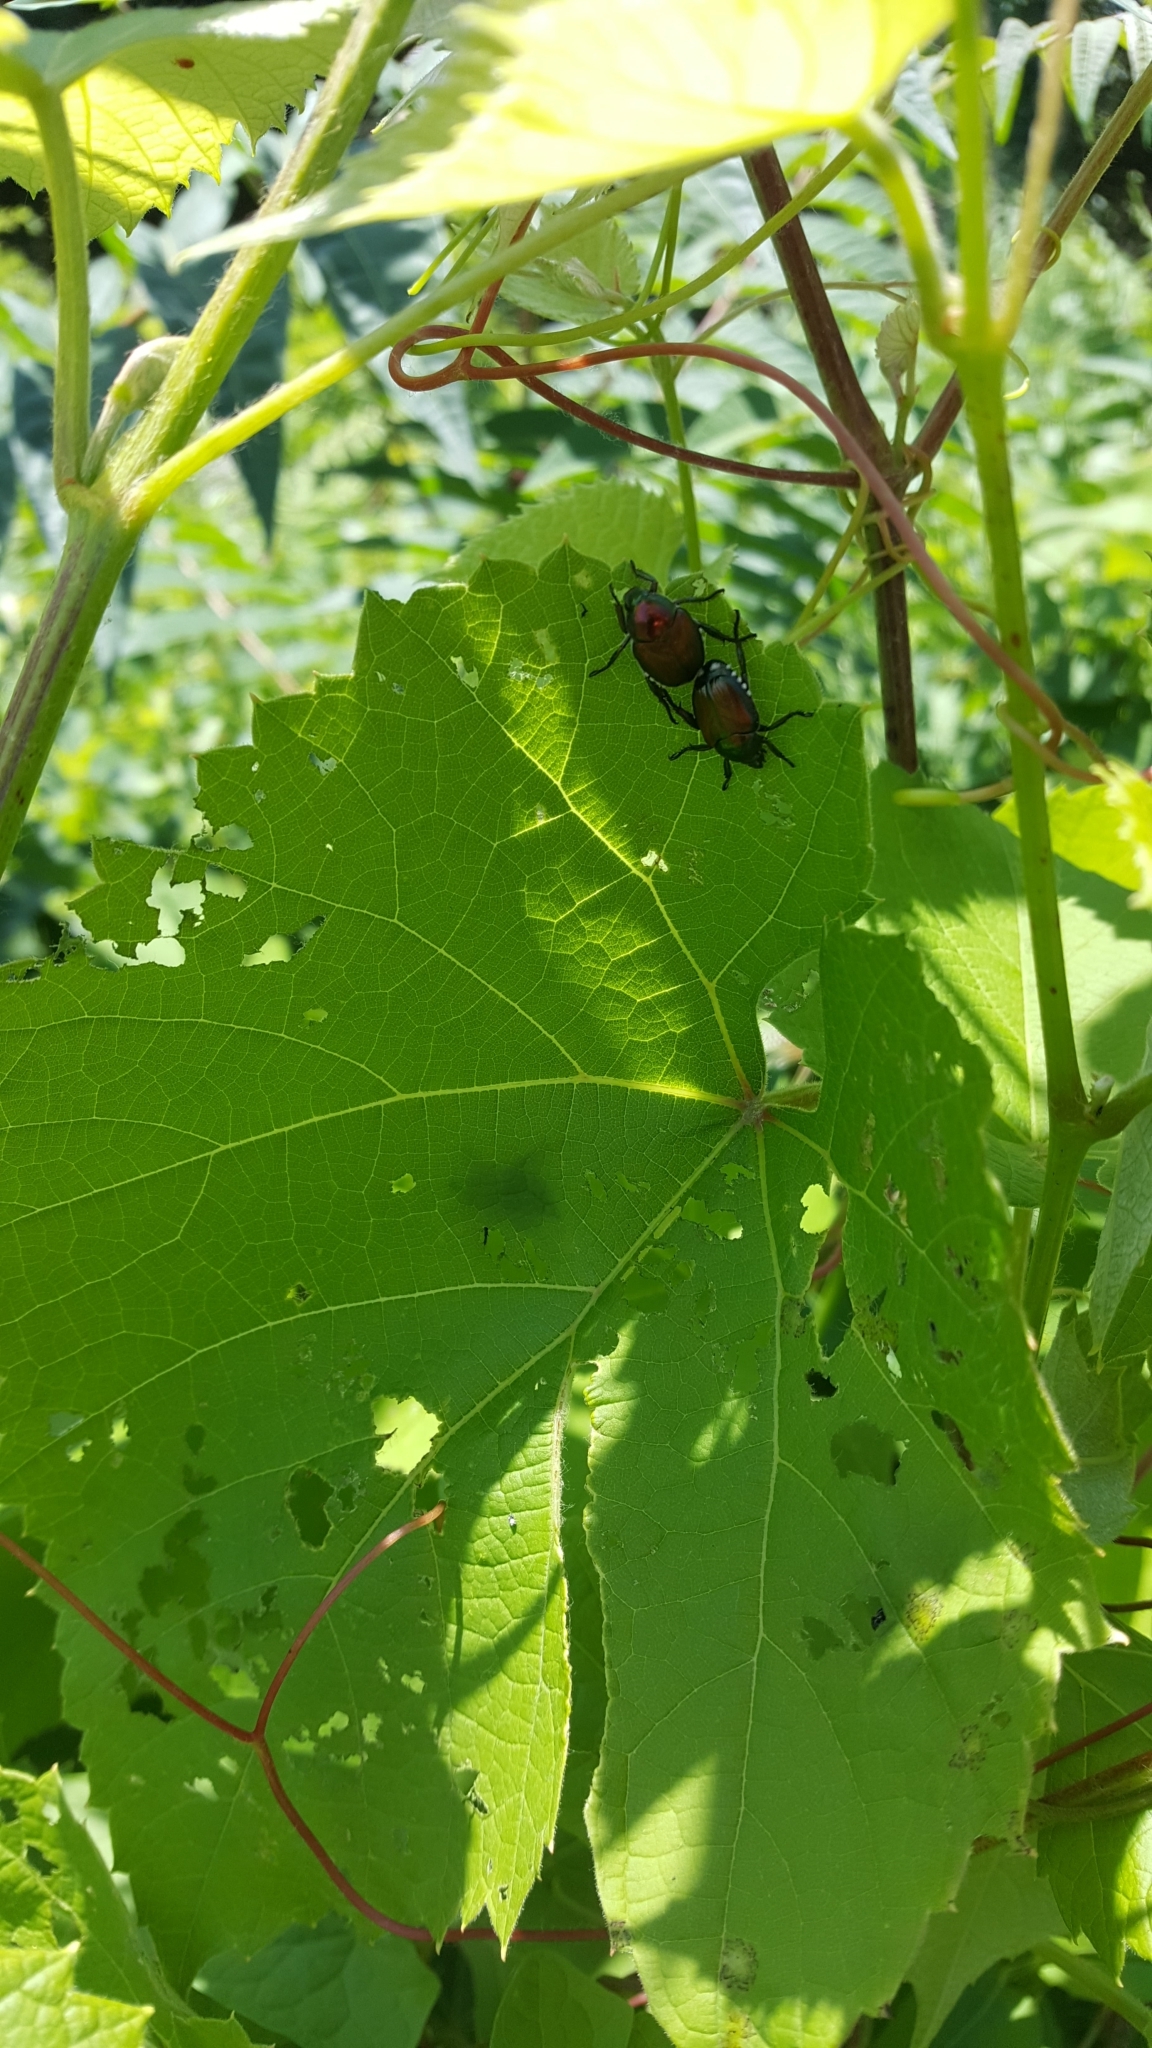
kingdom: Animalia
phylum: Arthropoda
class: Insecta
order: Coleoptera
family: Scarabaeidae
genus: Popillia
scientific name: Popillia japonica
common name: Japanese beetle
